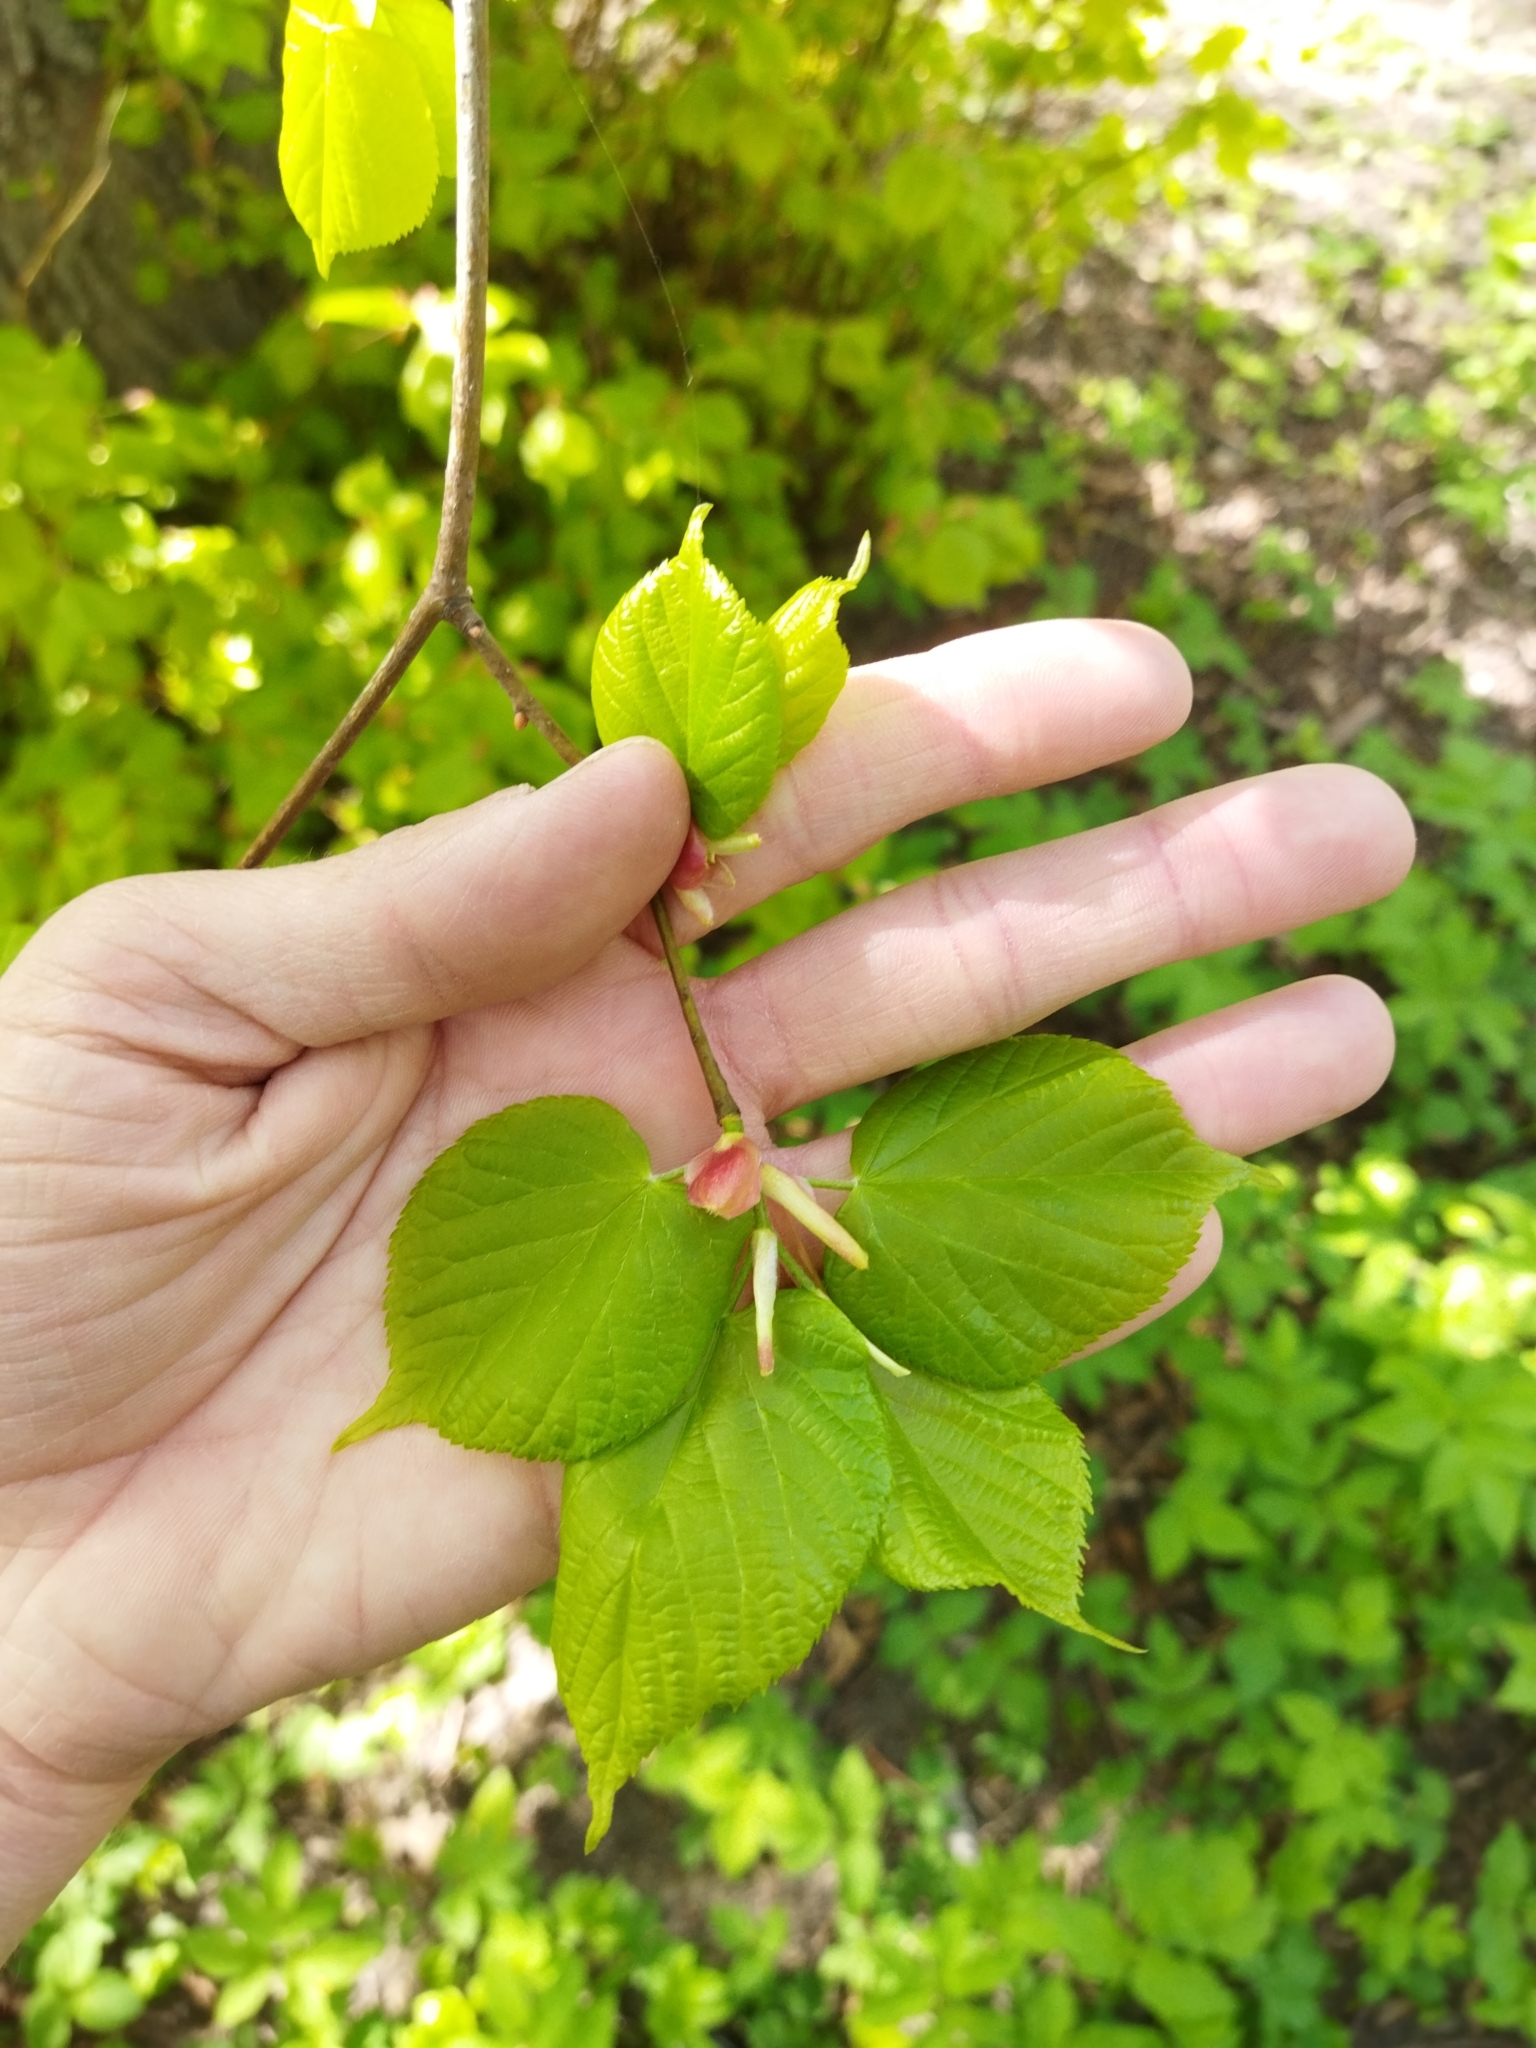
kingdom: Plantae
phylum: Tracheophyta
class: Magnoliopsida
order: Malvales
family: Malvaceae
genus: Tilia
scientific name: Tilia cordata
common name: Small-leaved lime
